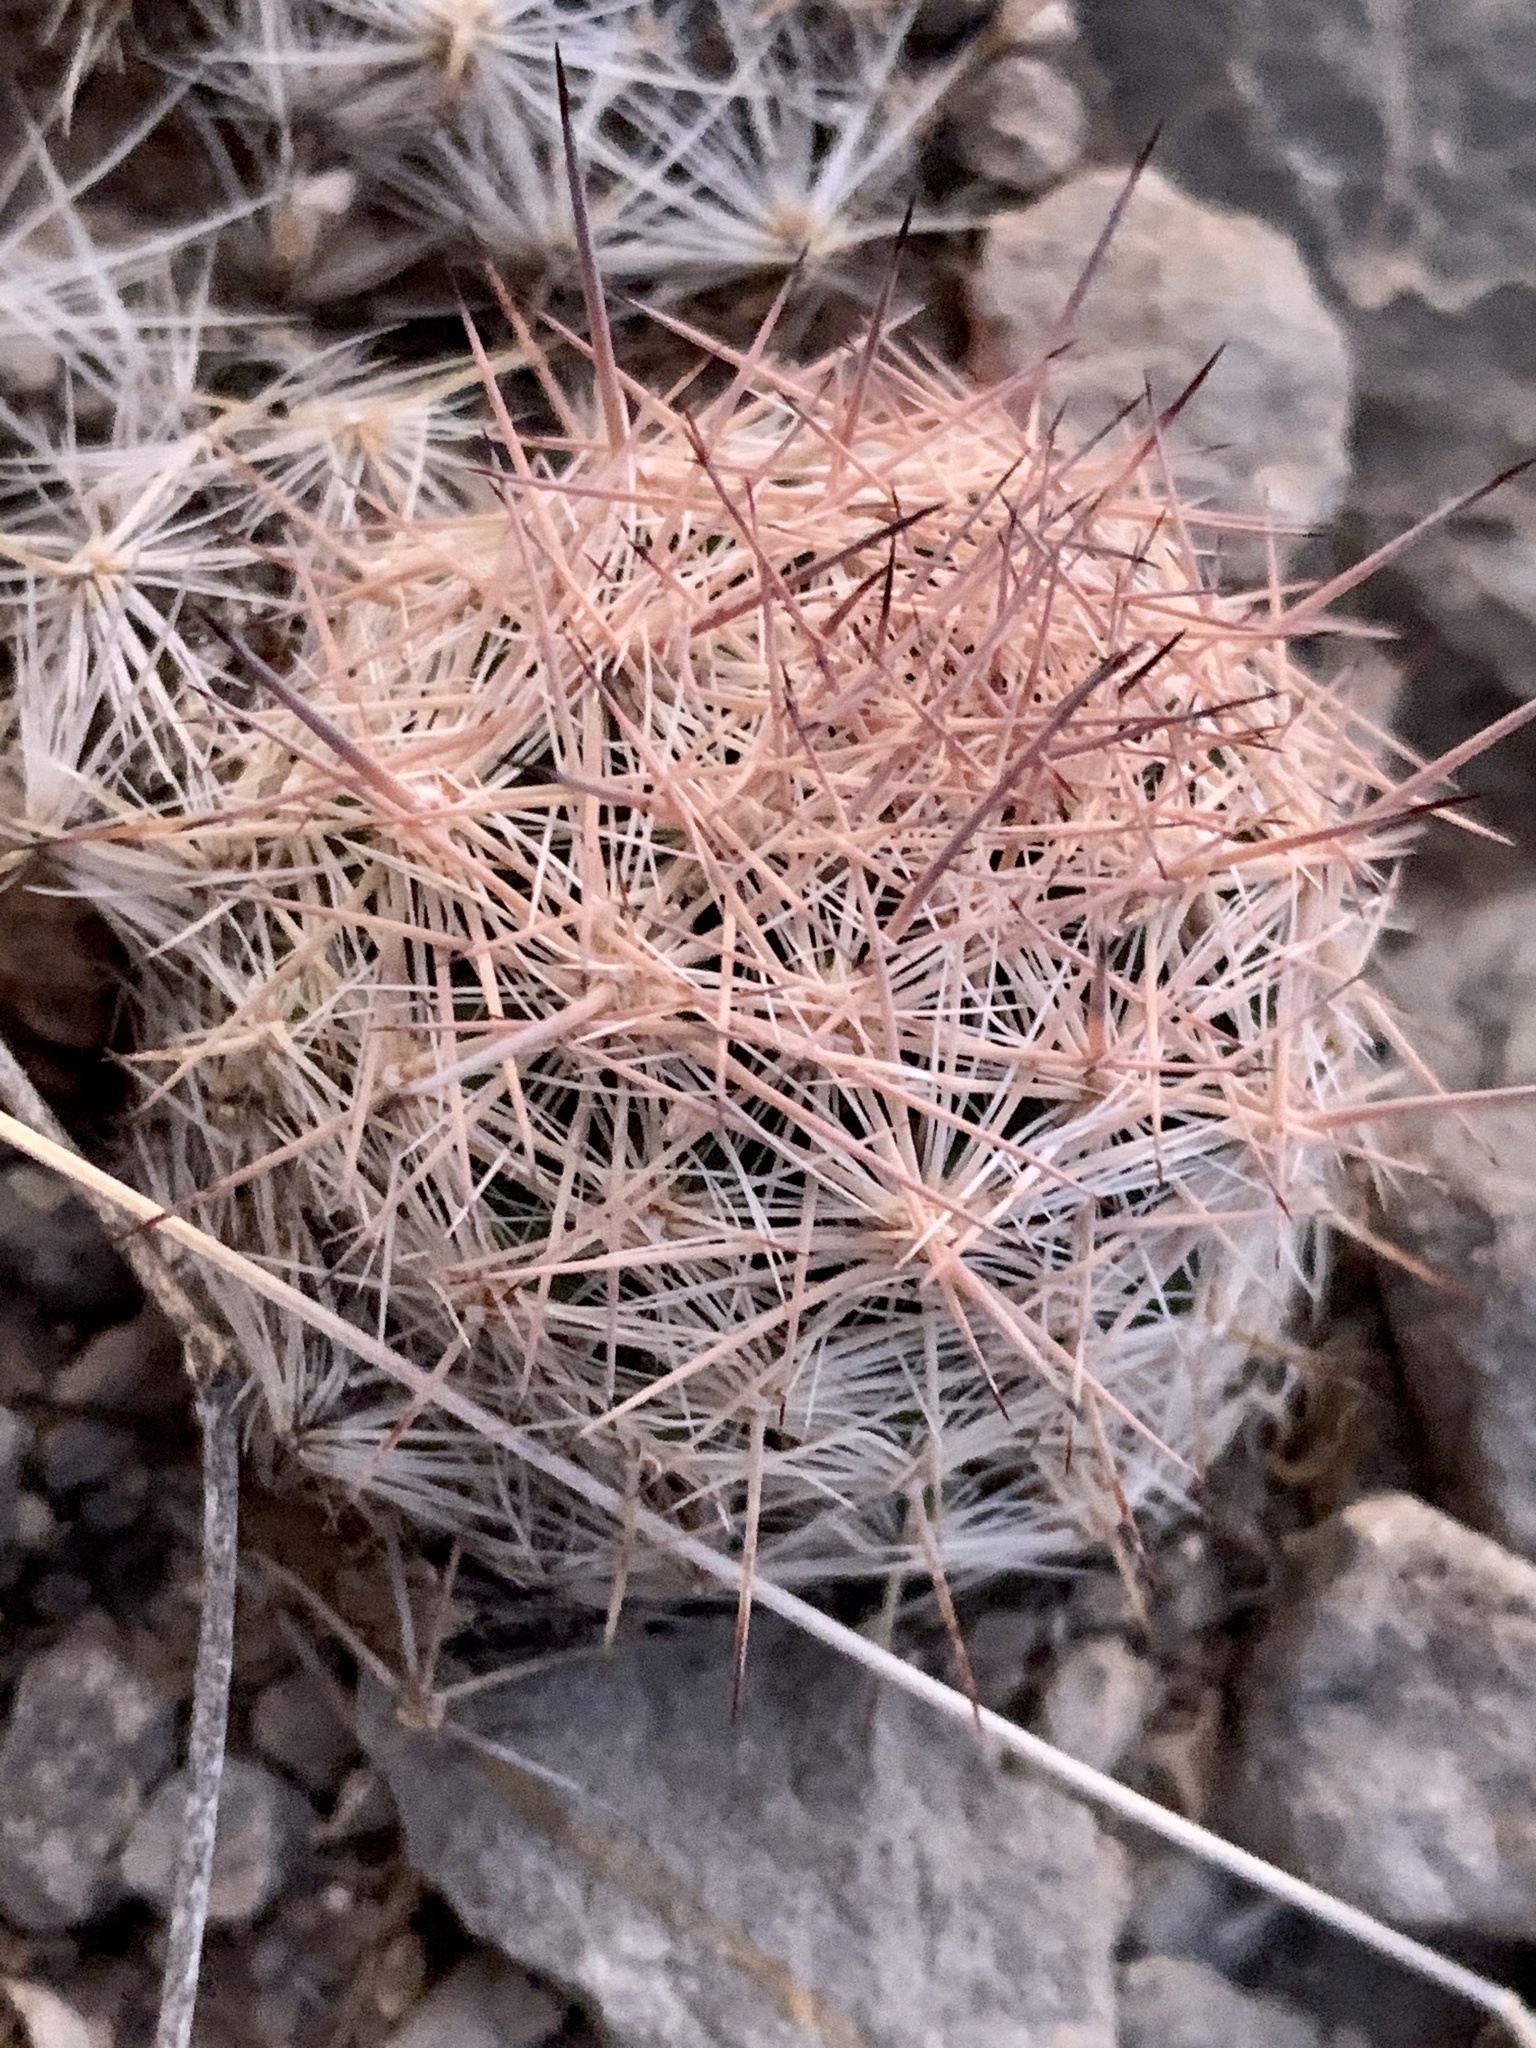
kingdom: Plantae
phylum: Tracheophyta
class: Magnoliopsida
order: Caryophyllales
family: Cactaceae
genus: Pelecyphora
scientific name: Pelecyphora vivipara
